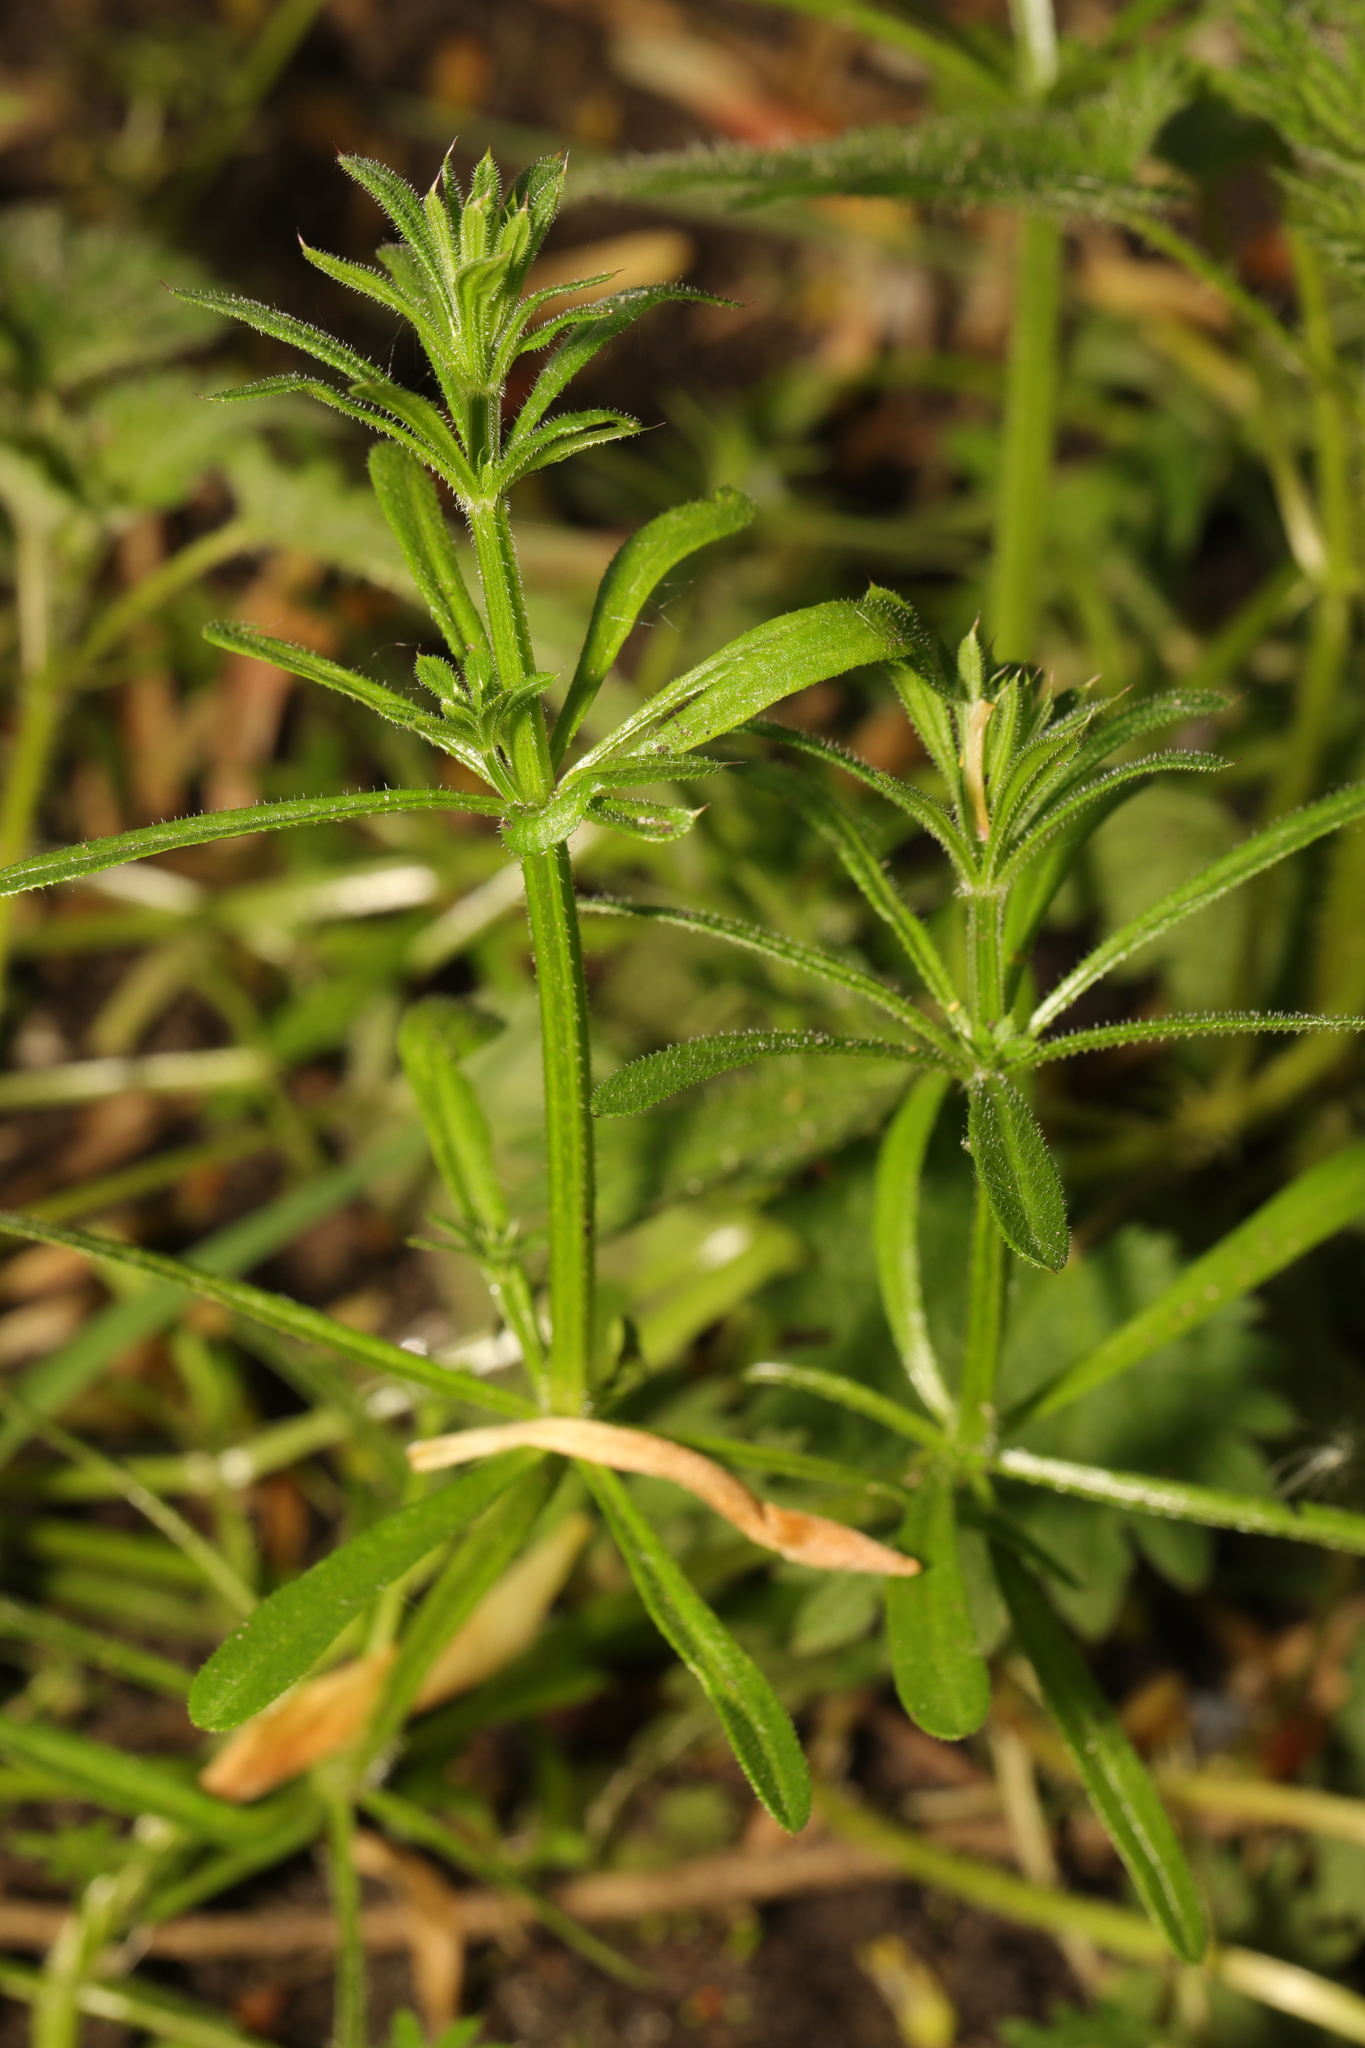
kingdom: Plantae
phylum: Tracheophyta
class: Magnoliopsida
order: Gentianales
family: Rubiaceae
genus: Galium
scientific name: Galium aparine
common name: Cleavers
